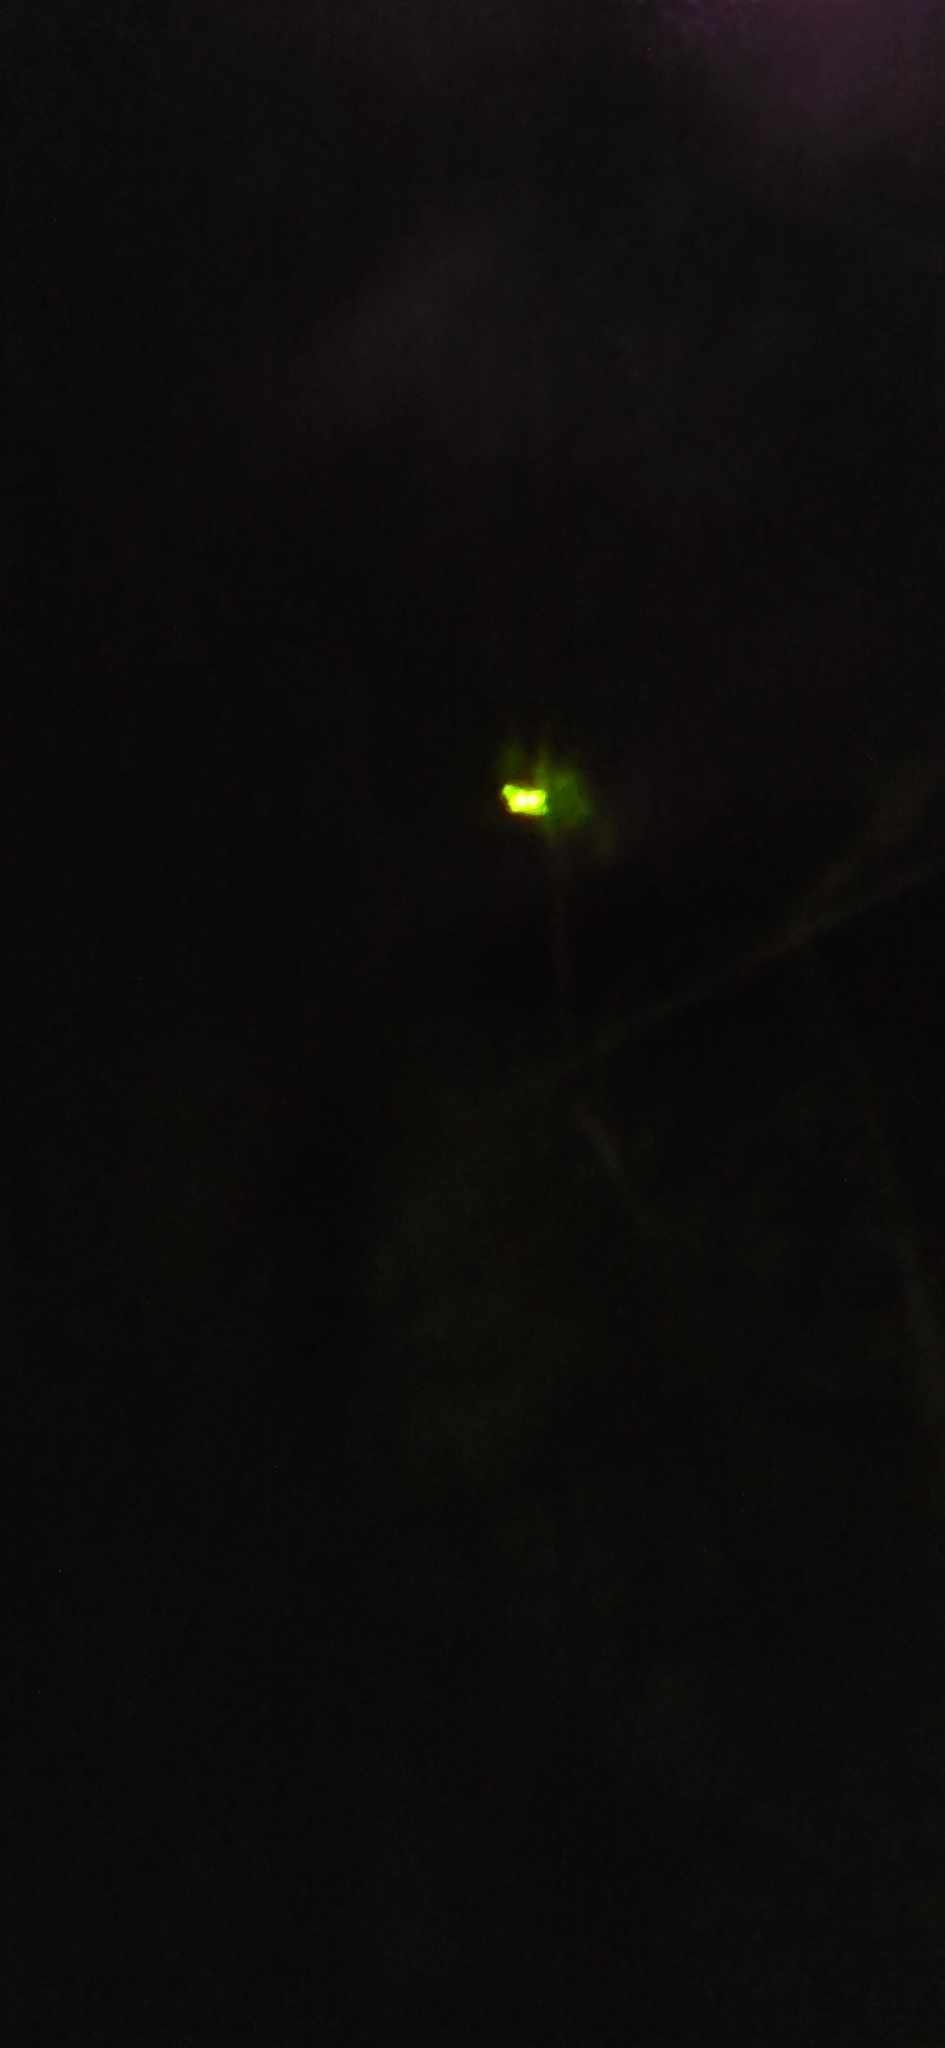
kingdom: Animalia
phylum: Arthropoda
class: Insecta
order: Coleoptera
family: Lampyridae
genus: Microphotus
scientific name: Microphotus angustus
